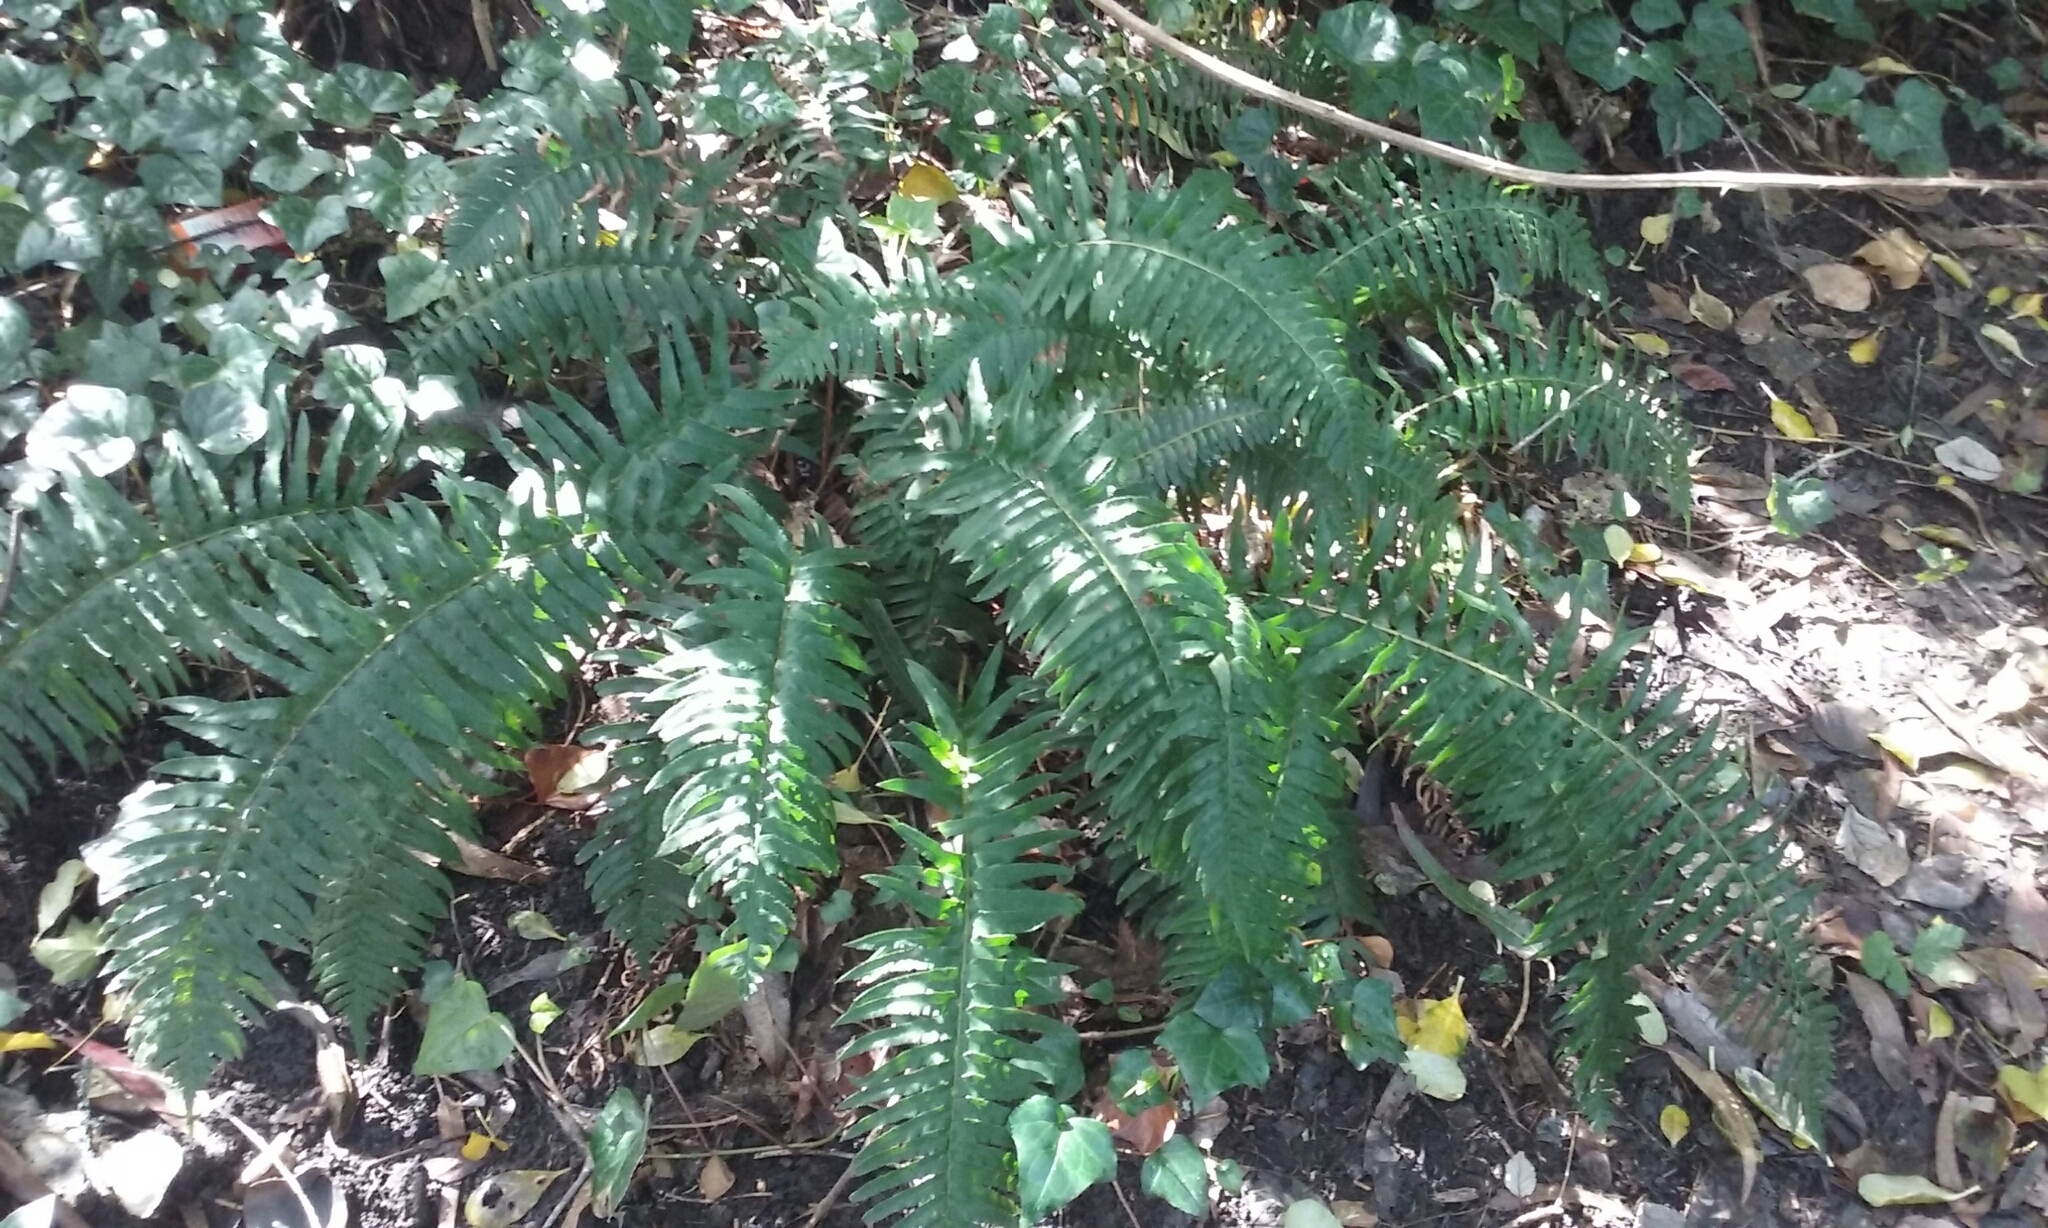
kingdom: Plantae
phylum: Tracheophyta
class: Polypodiopsida
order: Polypodiales
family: Dryopteridaceae
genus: Polystichum
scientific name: Polystichum munitum
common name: Western sword-fern
